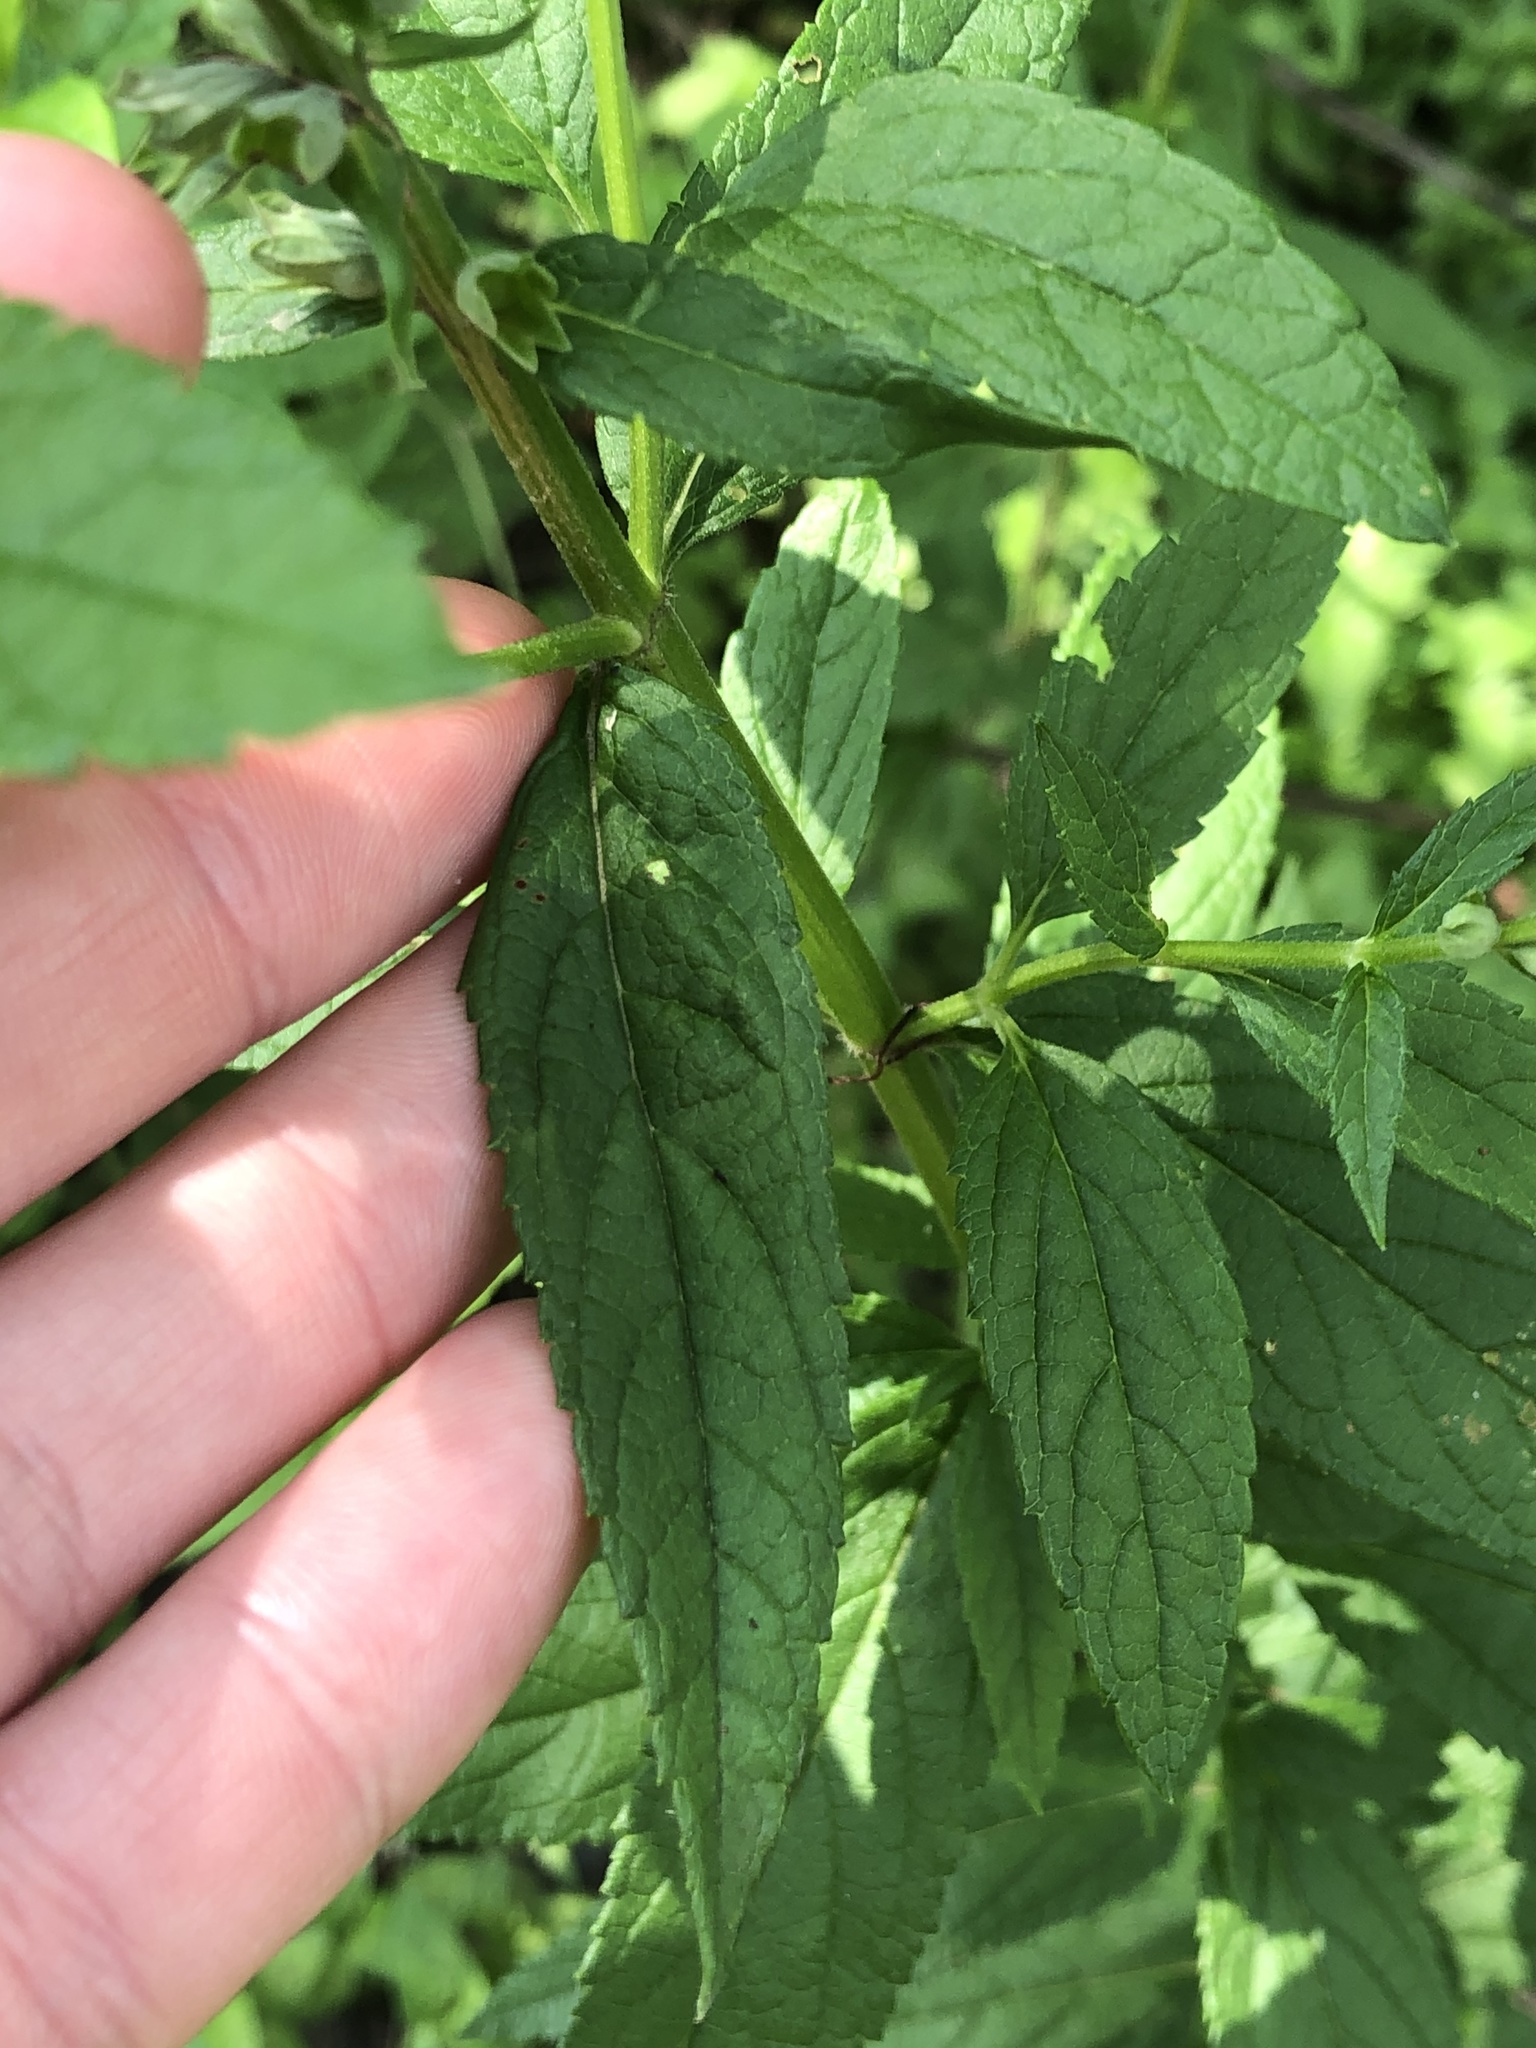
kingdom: Plantae
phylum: Tracheophyta
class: Magnoliopsida
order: Lamiales
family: Lamiaceae
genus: Teucrium
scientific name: Teucrium canadense
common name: American germander
